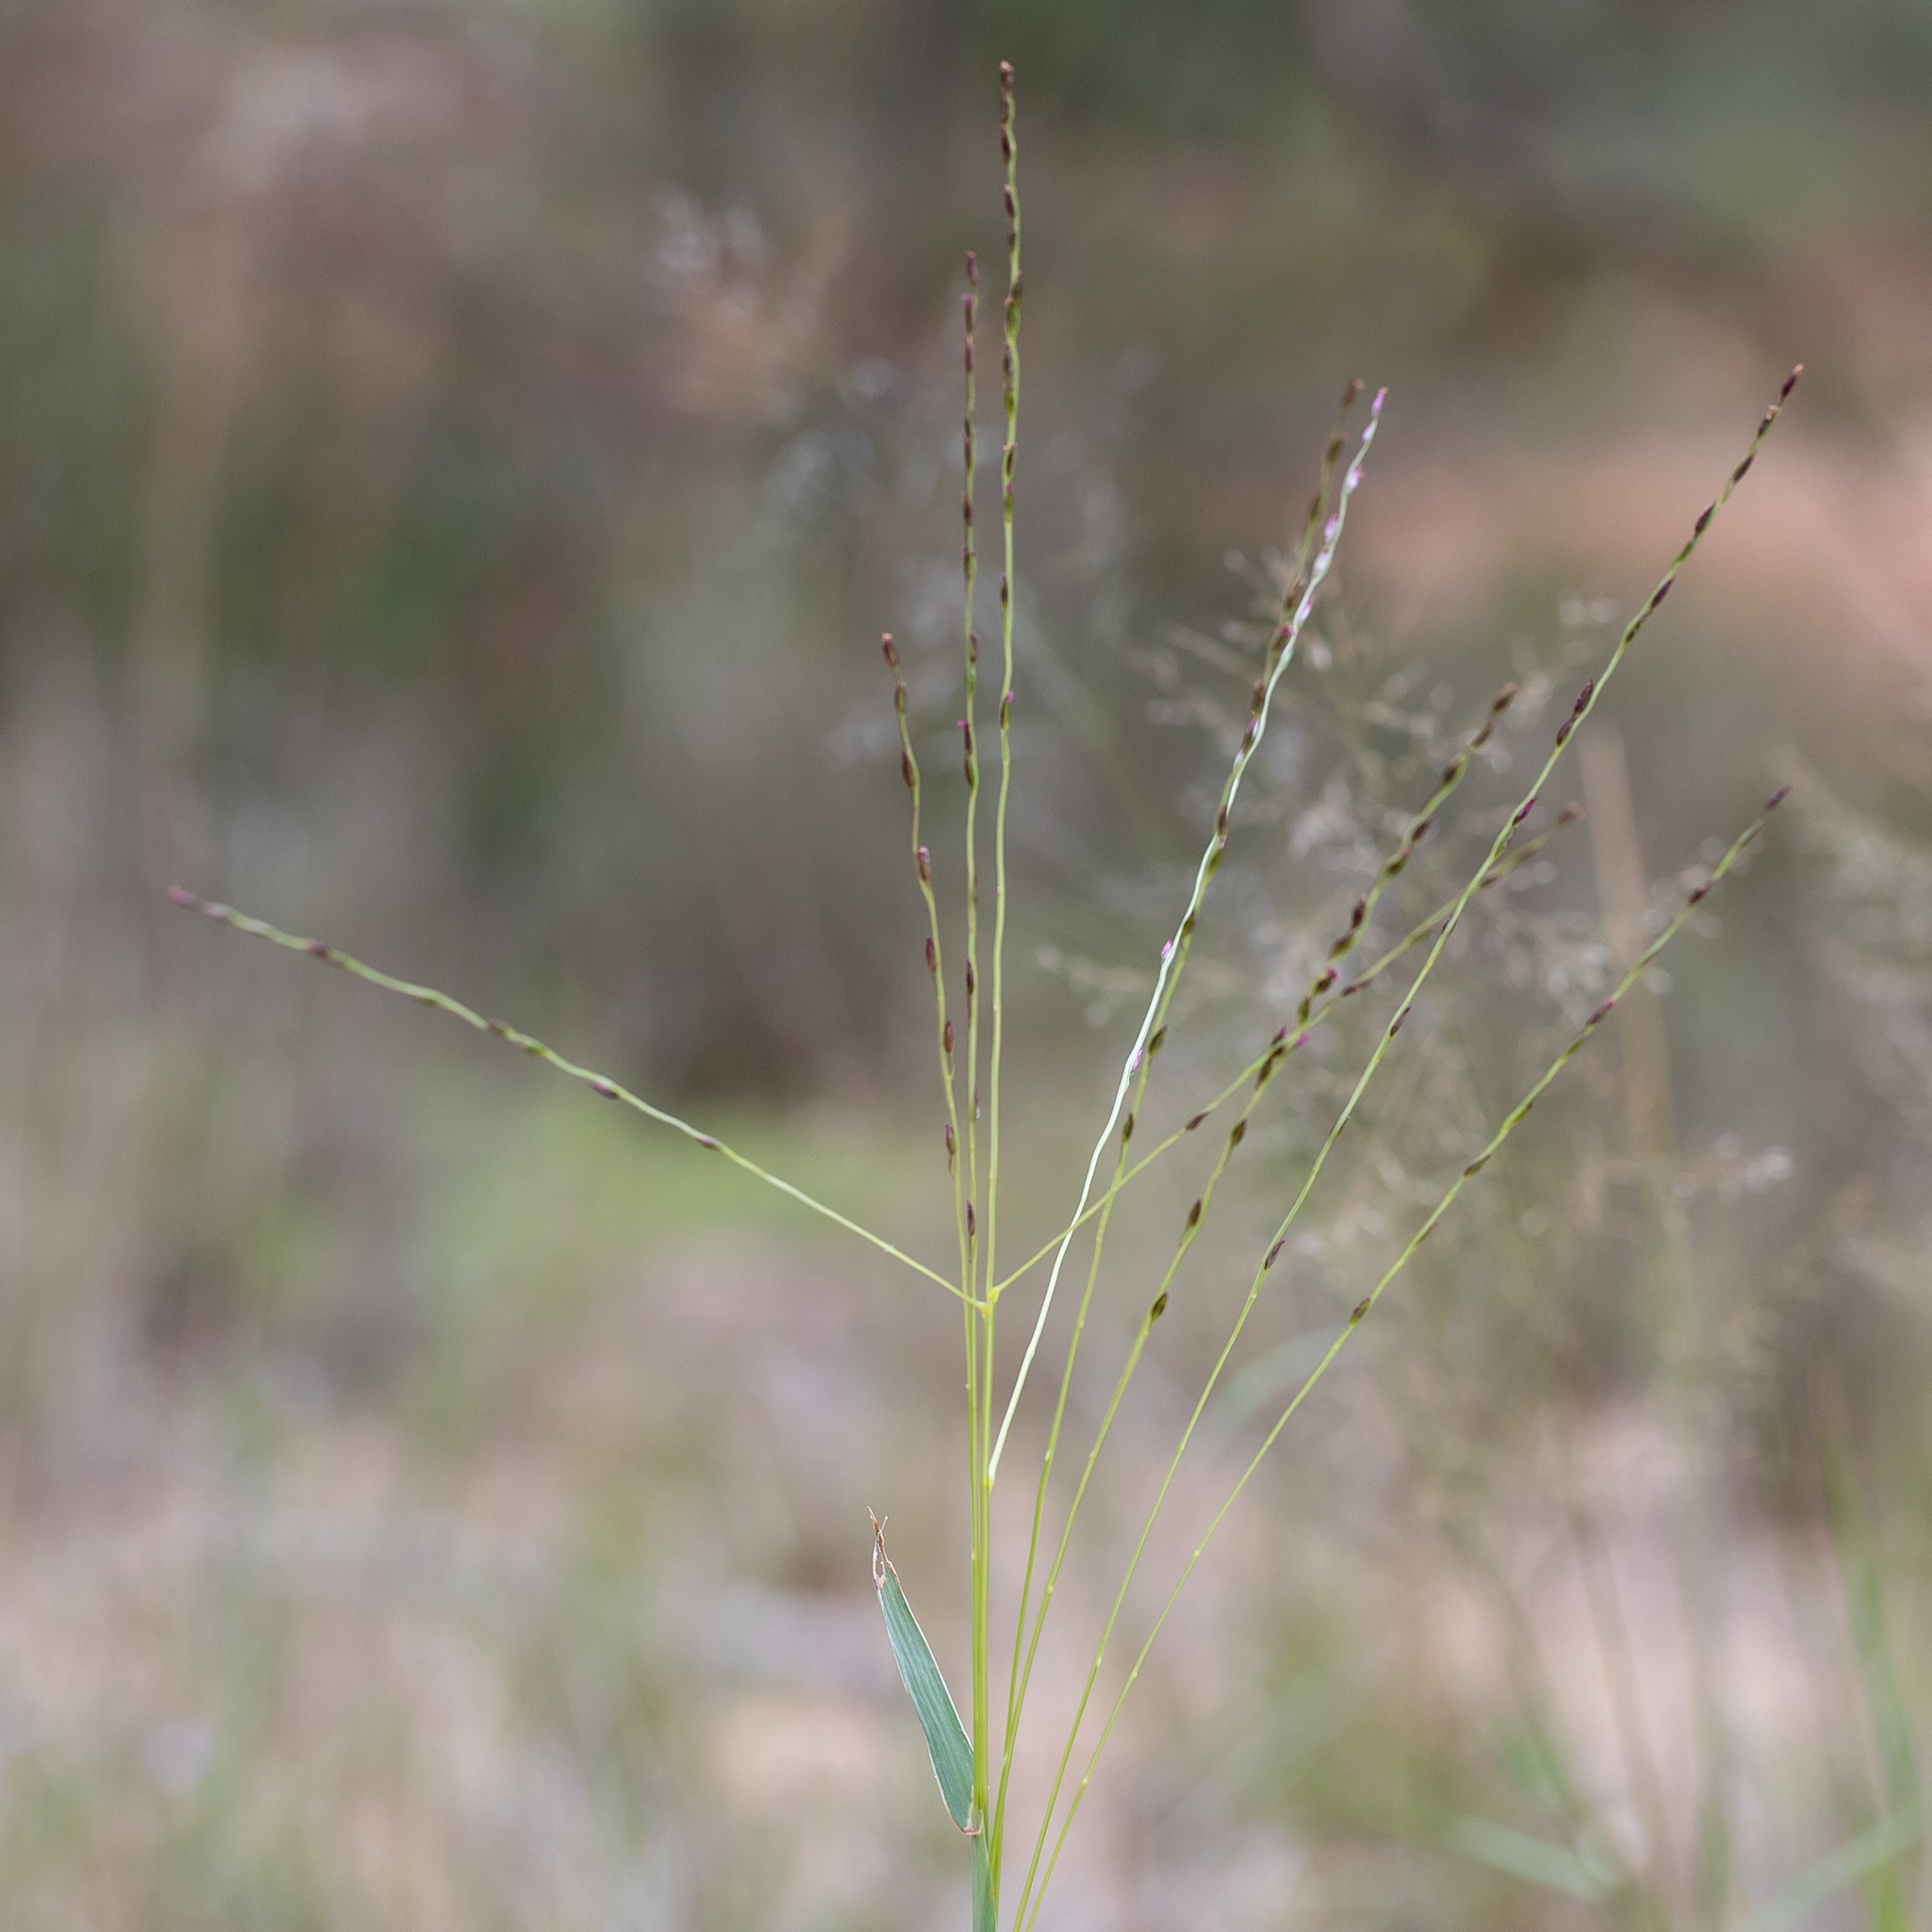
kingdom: Plantae
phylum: Tracheophyta
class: Liliopsida
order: Poales
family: Poaceae
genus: Digitaria
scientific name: Digitaria divaricatissima
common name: Crabgrass
